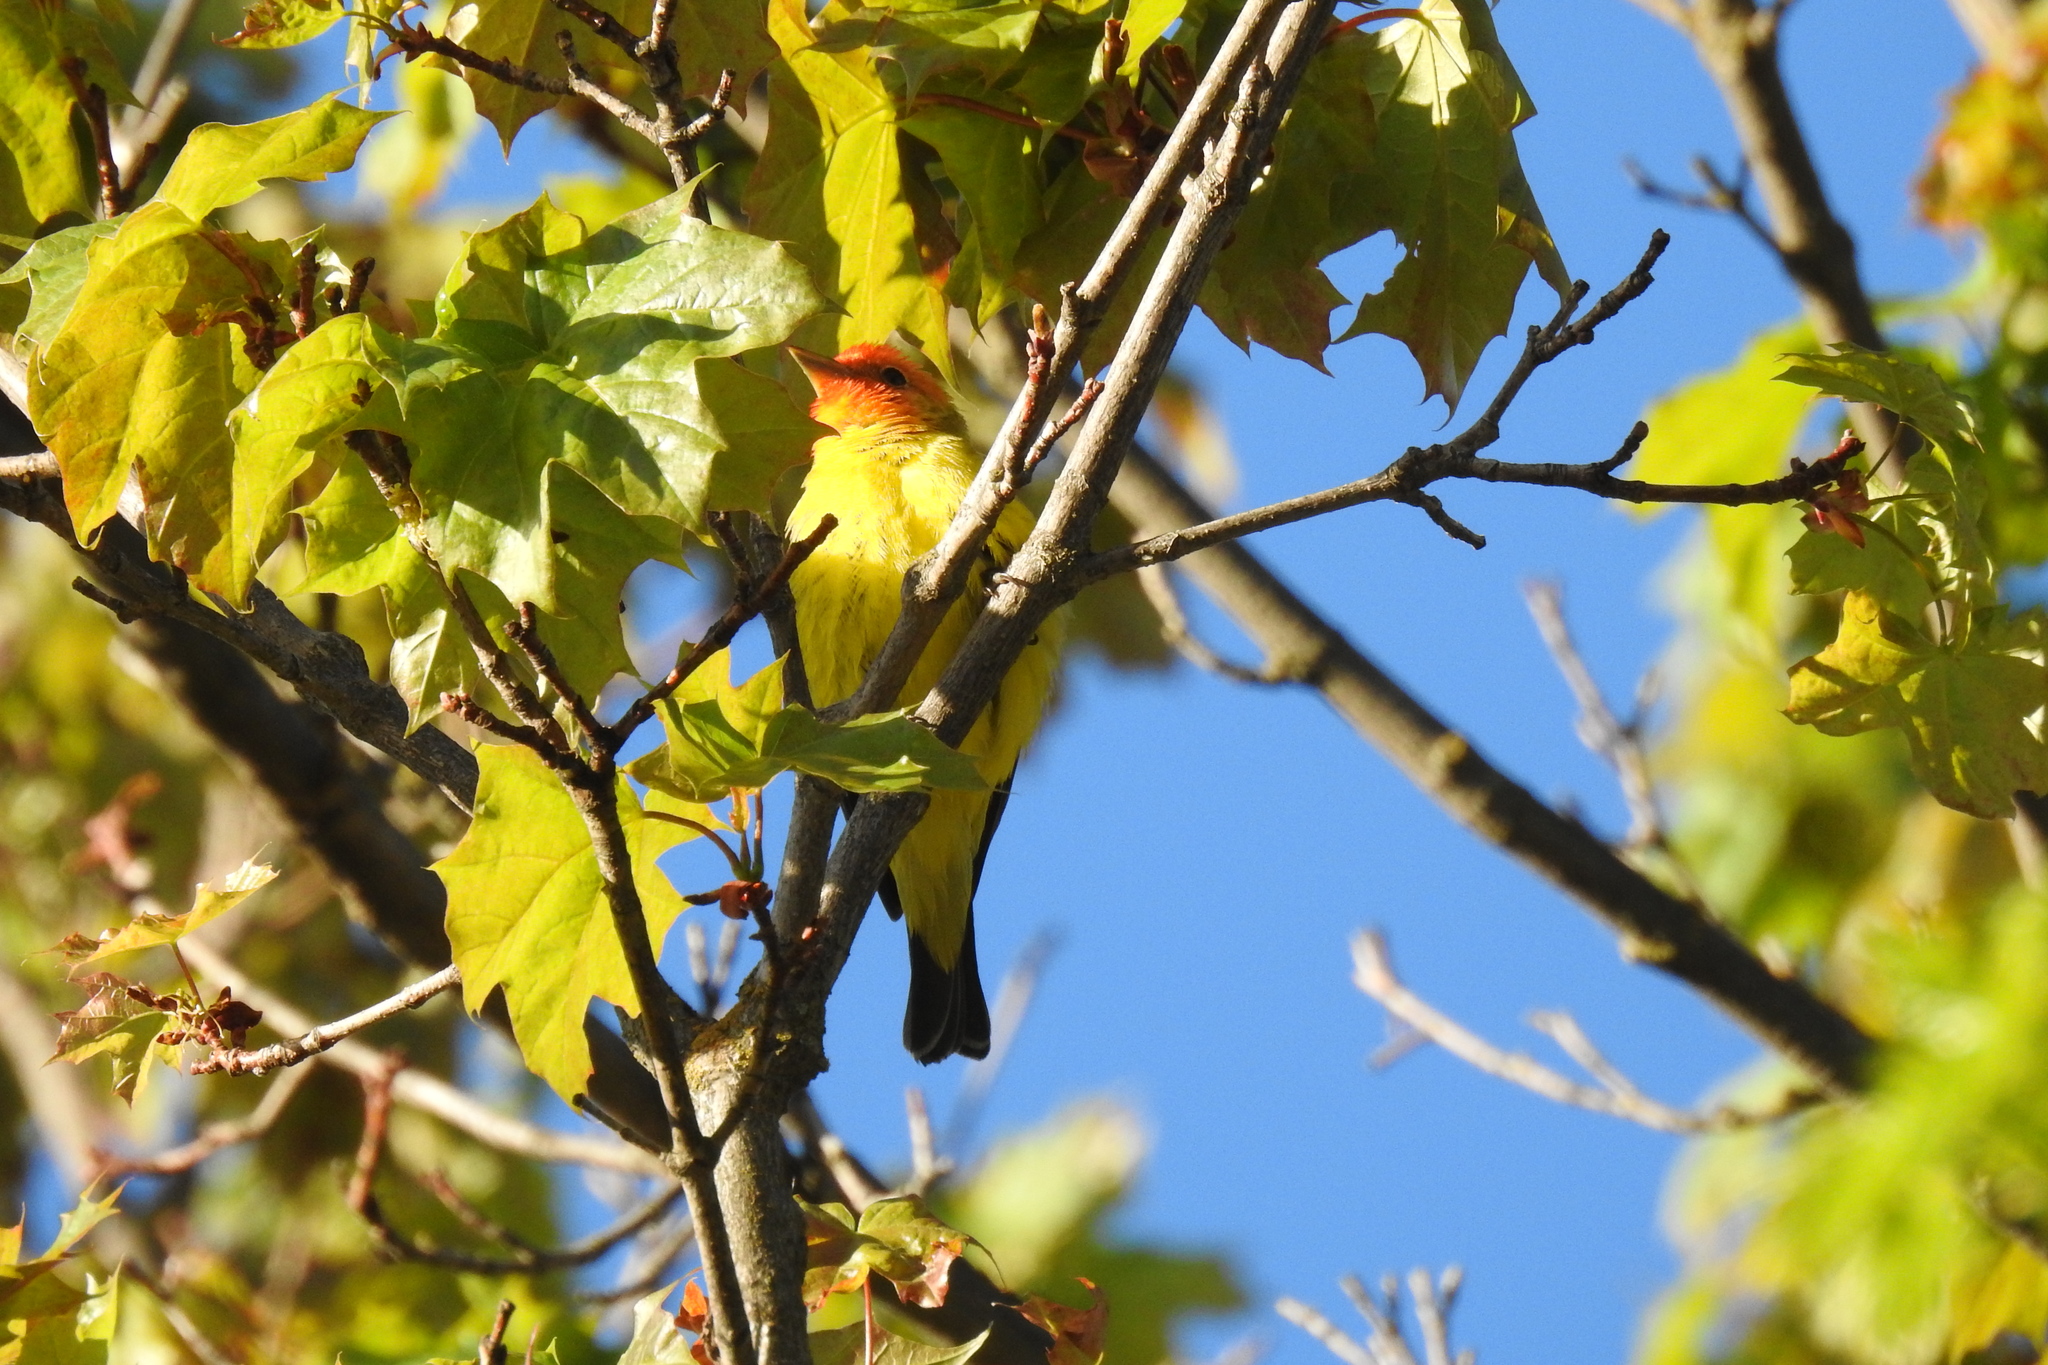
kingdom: Animalia
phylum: Chordata
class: Aves
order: Passeriformes
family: Cardinalidae
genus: Piranga
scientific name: Piranga ludoviciana
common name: Western tanager
